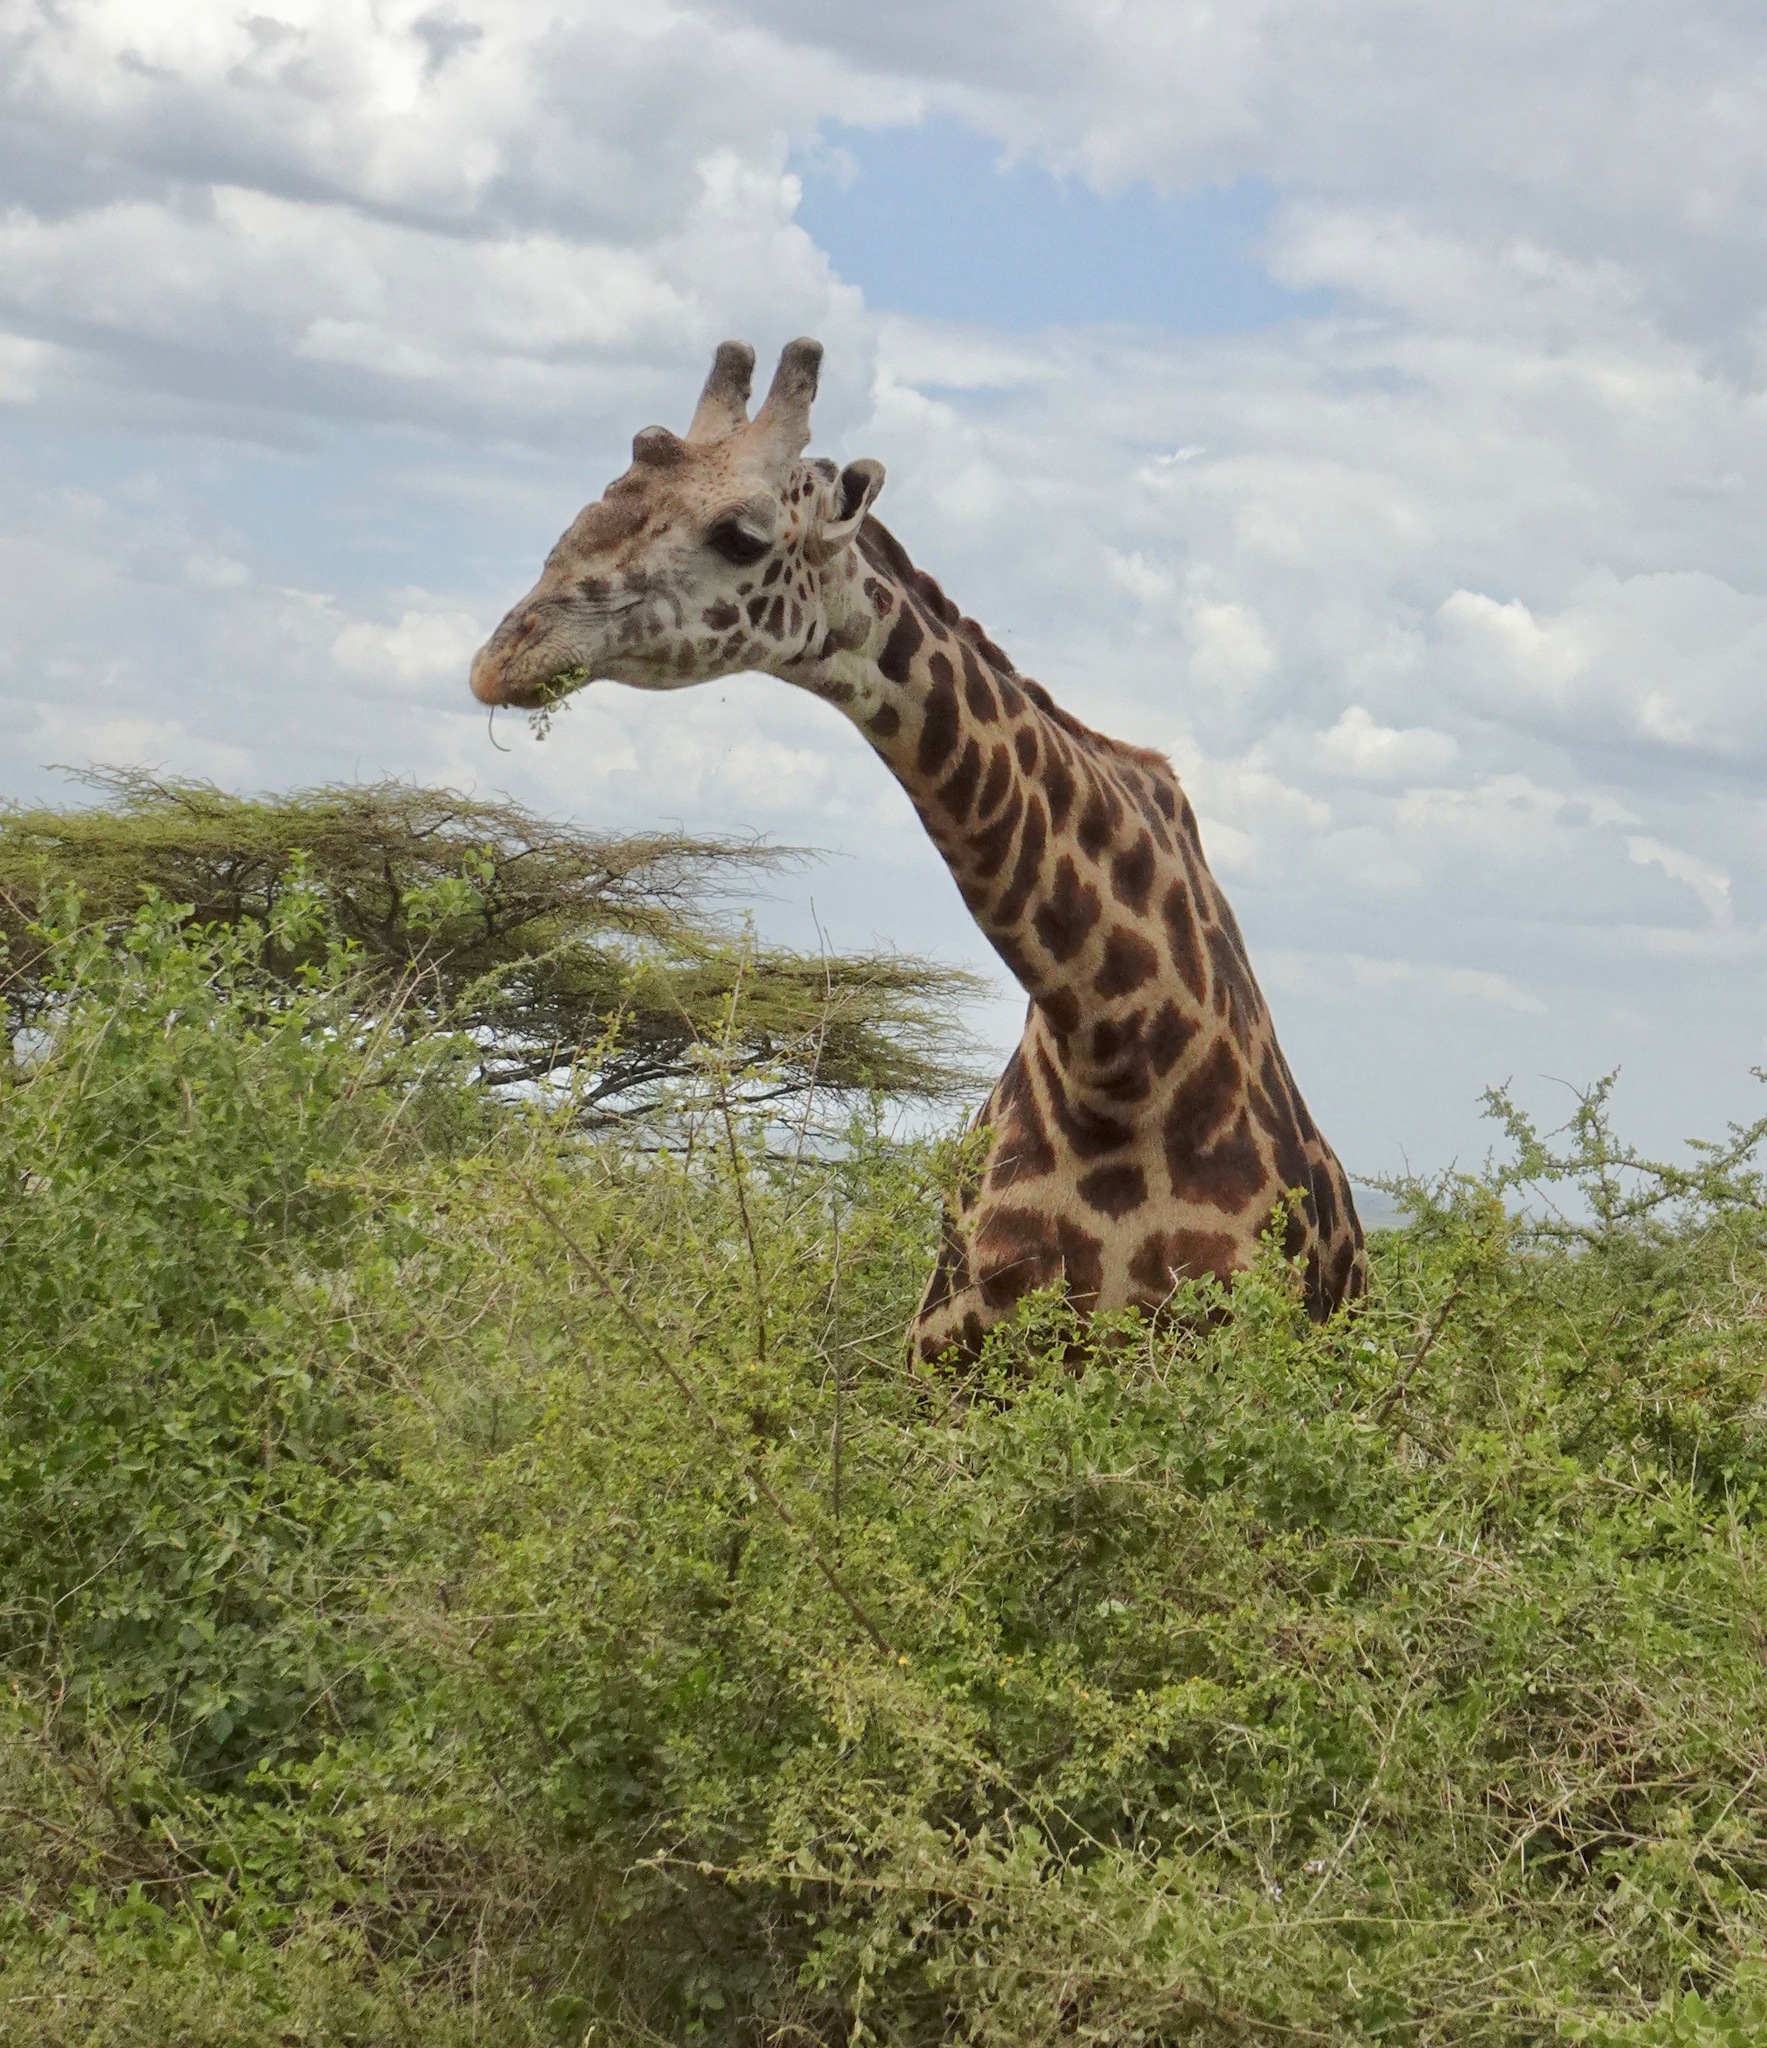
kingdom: Animalia
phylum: Chordata
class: Mammalia
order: Artiodactyla
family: Giraffidae
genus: Giraffa
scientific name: Giraffa tippelskirchi
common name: Masai giraffe
